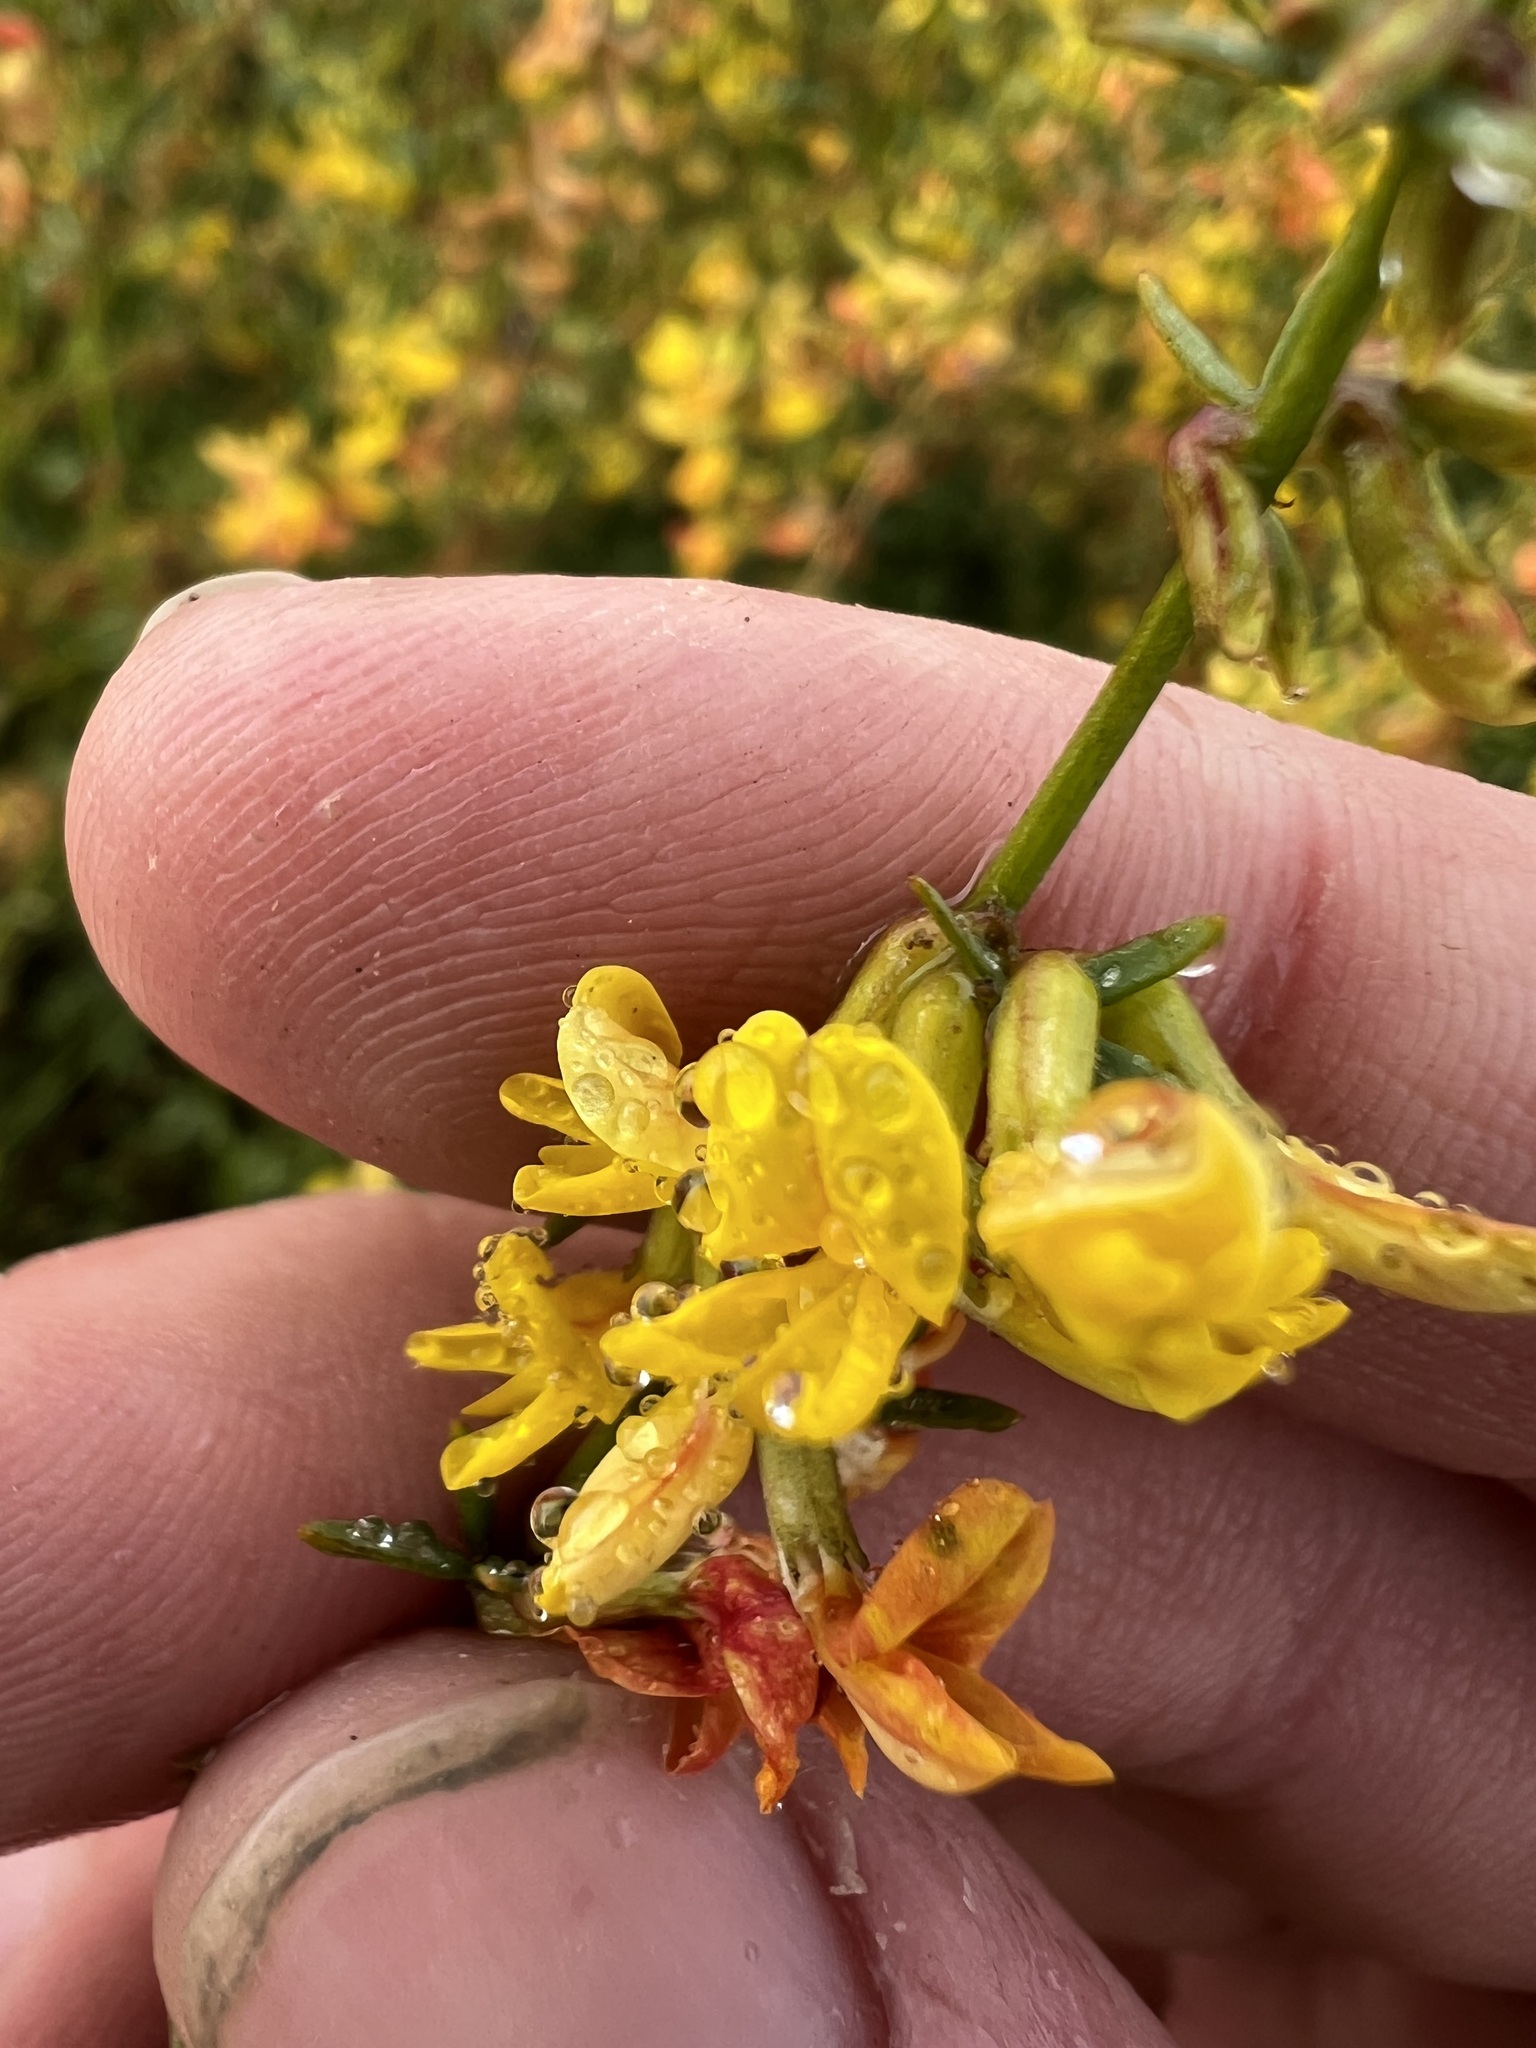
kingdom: Plantae
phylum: Tracheophyta
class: Magnoliopsida
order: Fabales
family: Fabaceae
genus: Acmispon
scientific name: Acmispon glaber
